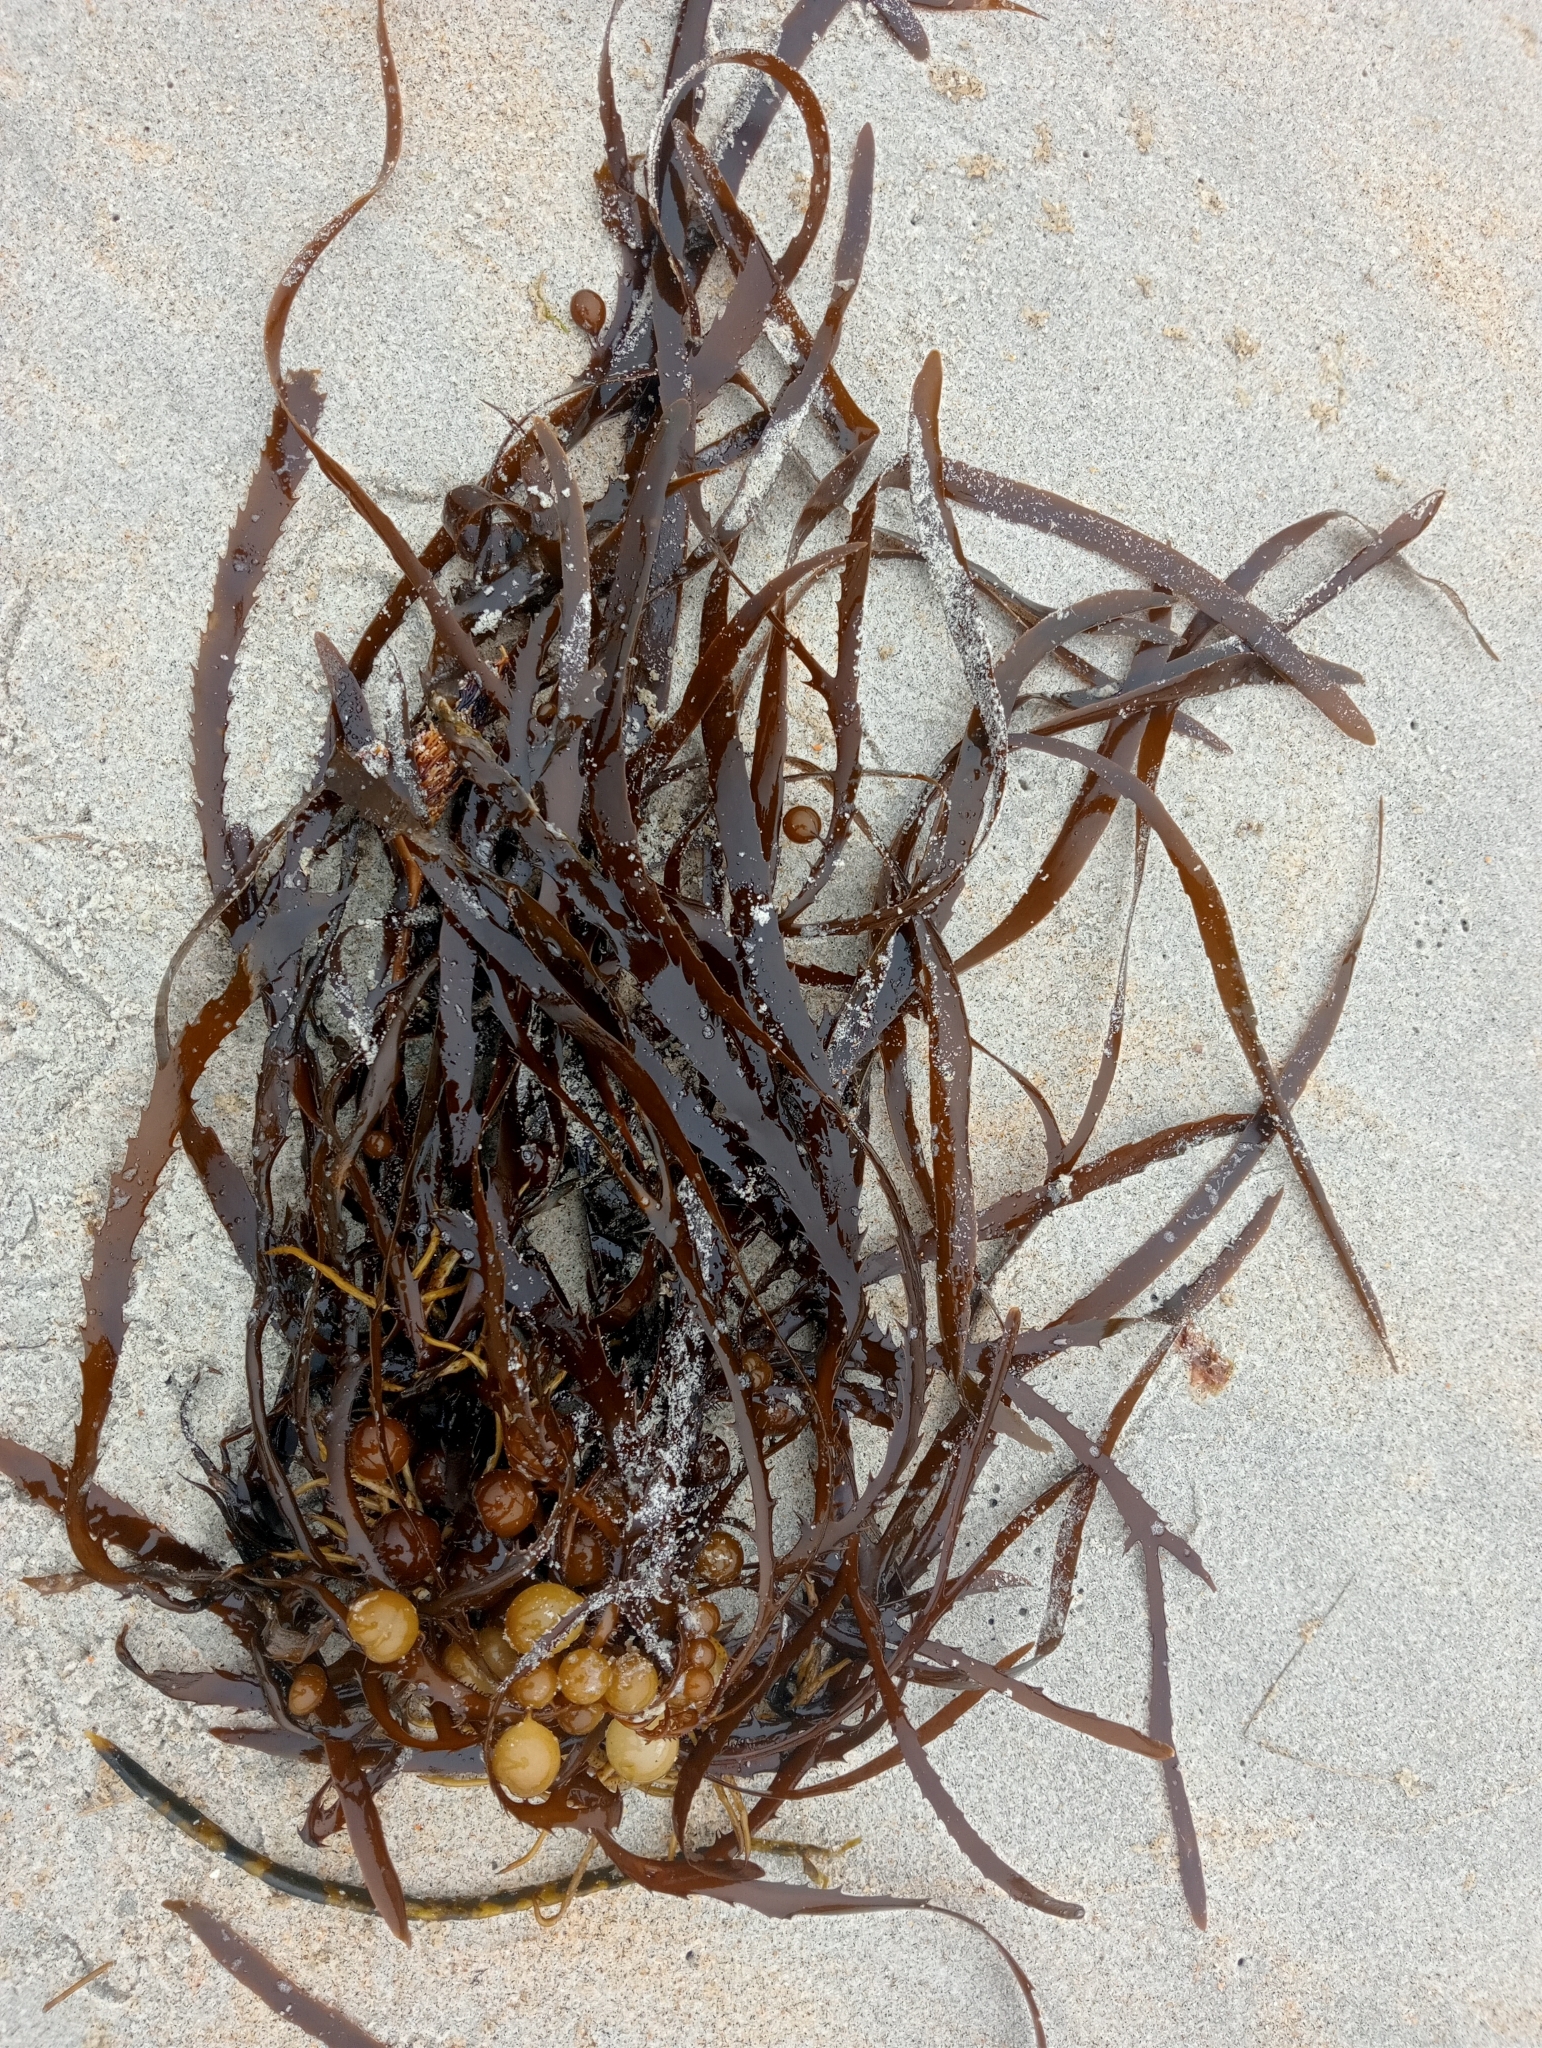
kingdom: Chromista
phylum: Ochrophyta
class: Phaeophyceae
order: Fucales
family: Seirococcaceae
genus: Marginariella
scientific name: Marginariella urvilliana
